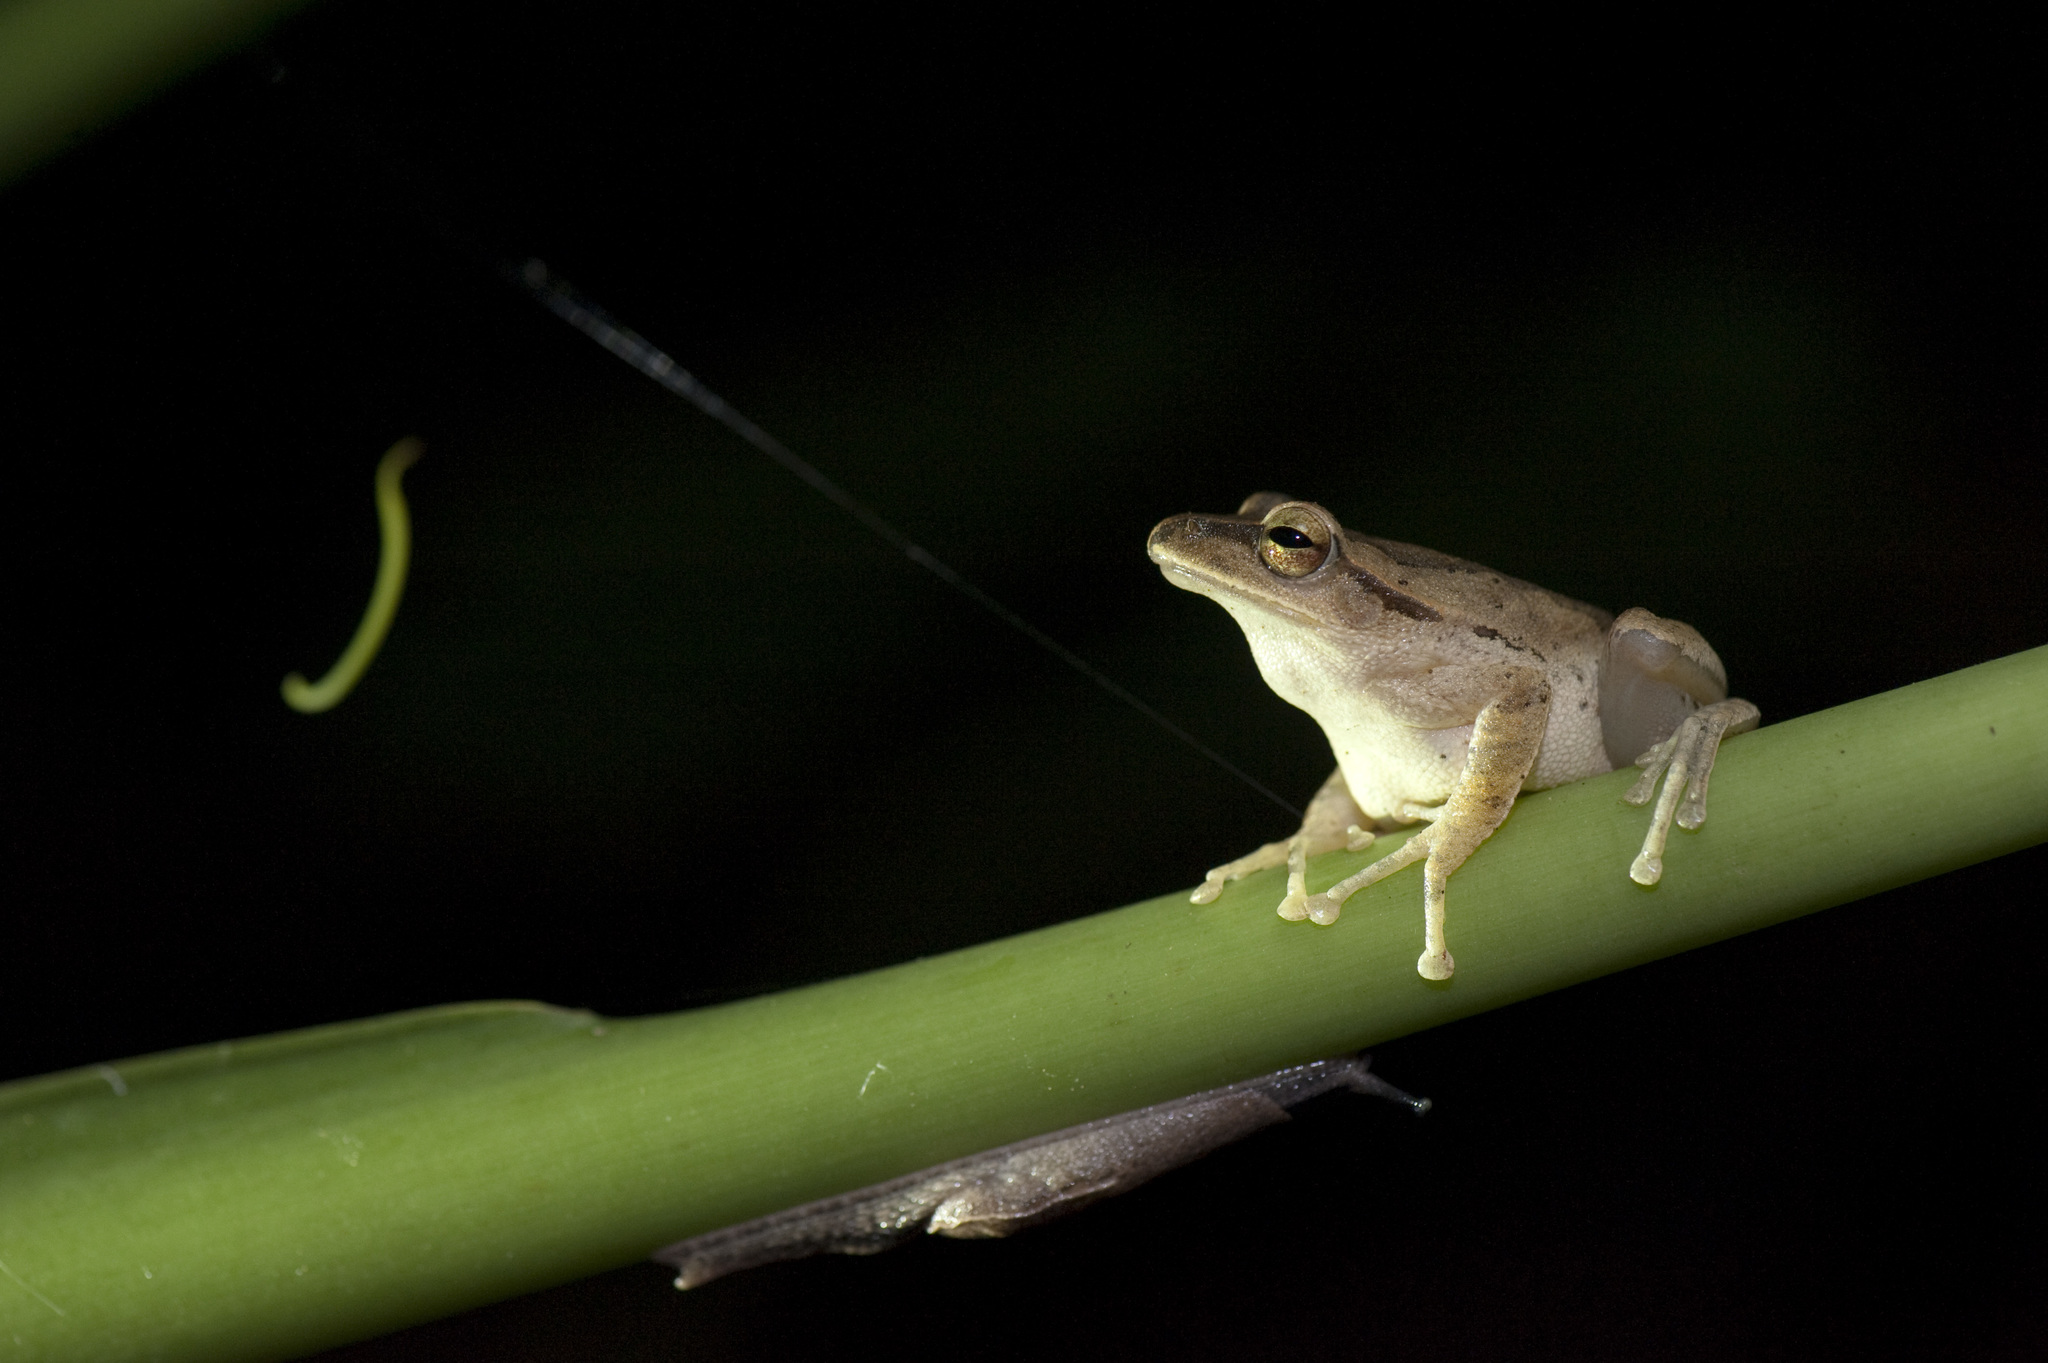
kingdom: Animalia
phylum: Chordata
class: Amphibia
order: Anura
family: Rhacophoridae
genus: Polypedates
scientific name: Polypedates braueri
